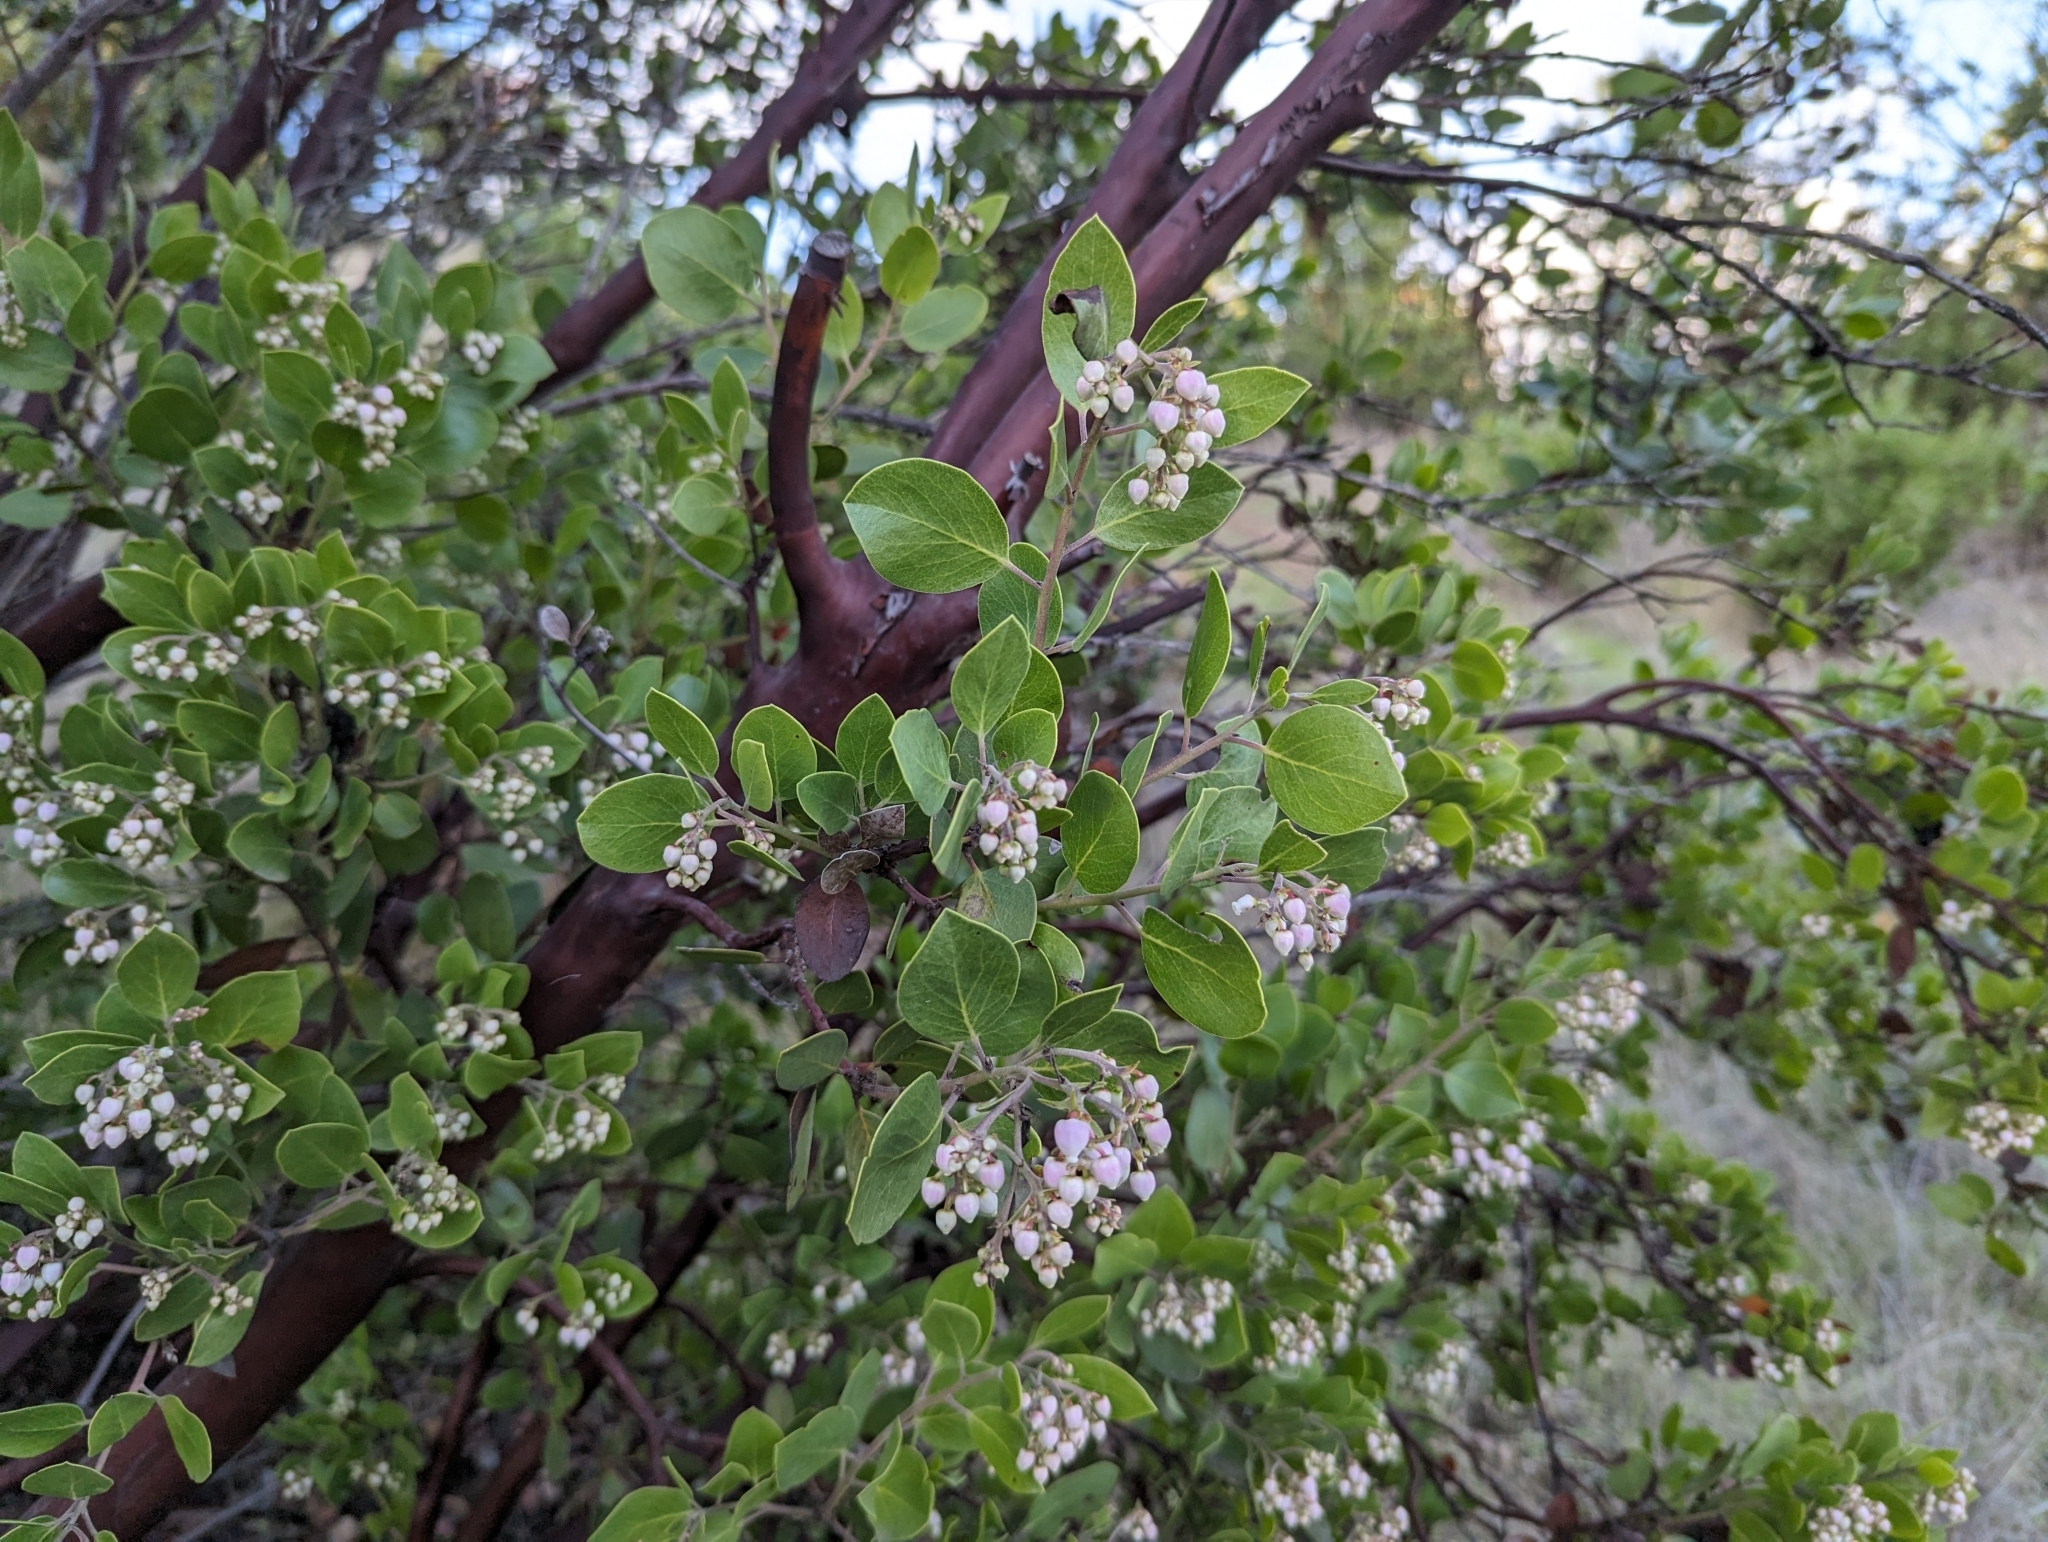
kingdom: Plantae
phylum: Tracheophyta
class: Magnoliopsida
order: Ericales
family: Ericaceae
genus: Arctostaphylos
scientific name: Arctostaphylos manzanita
